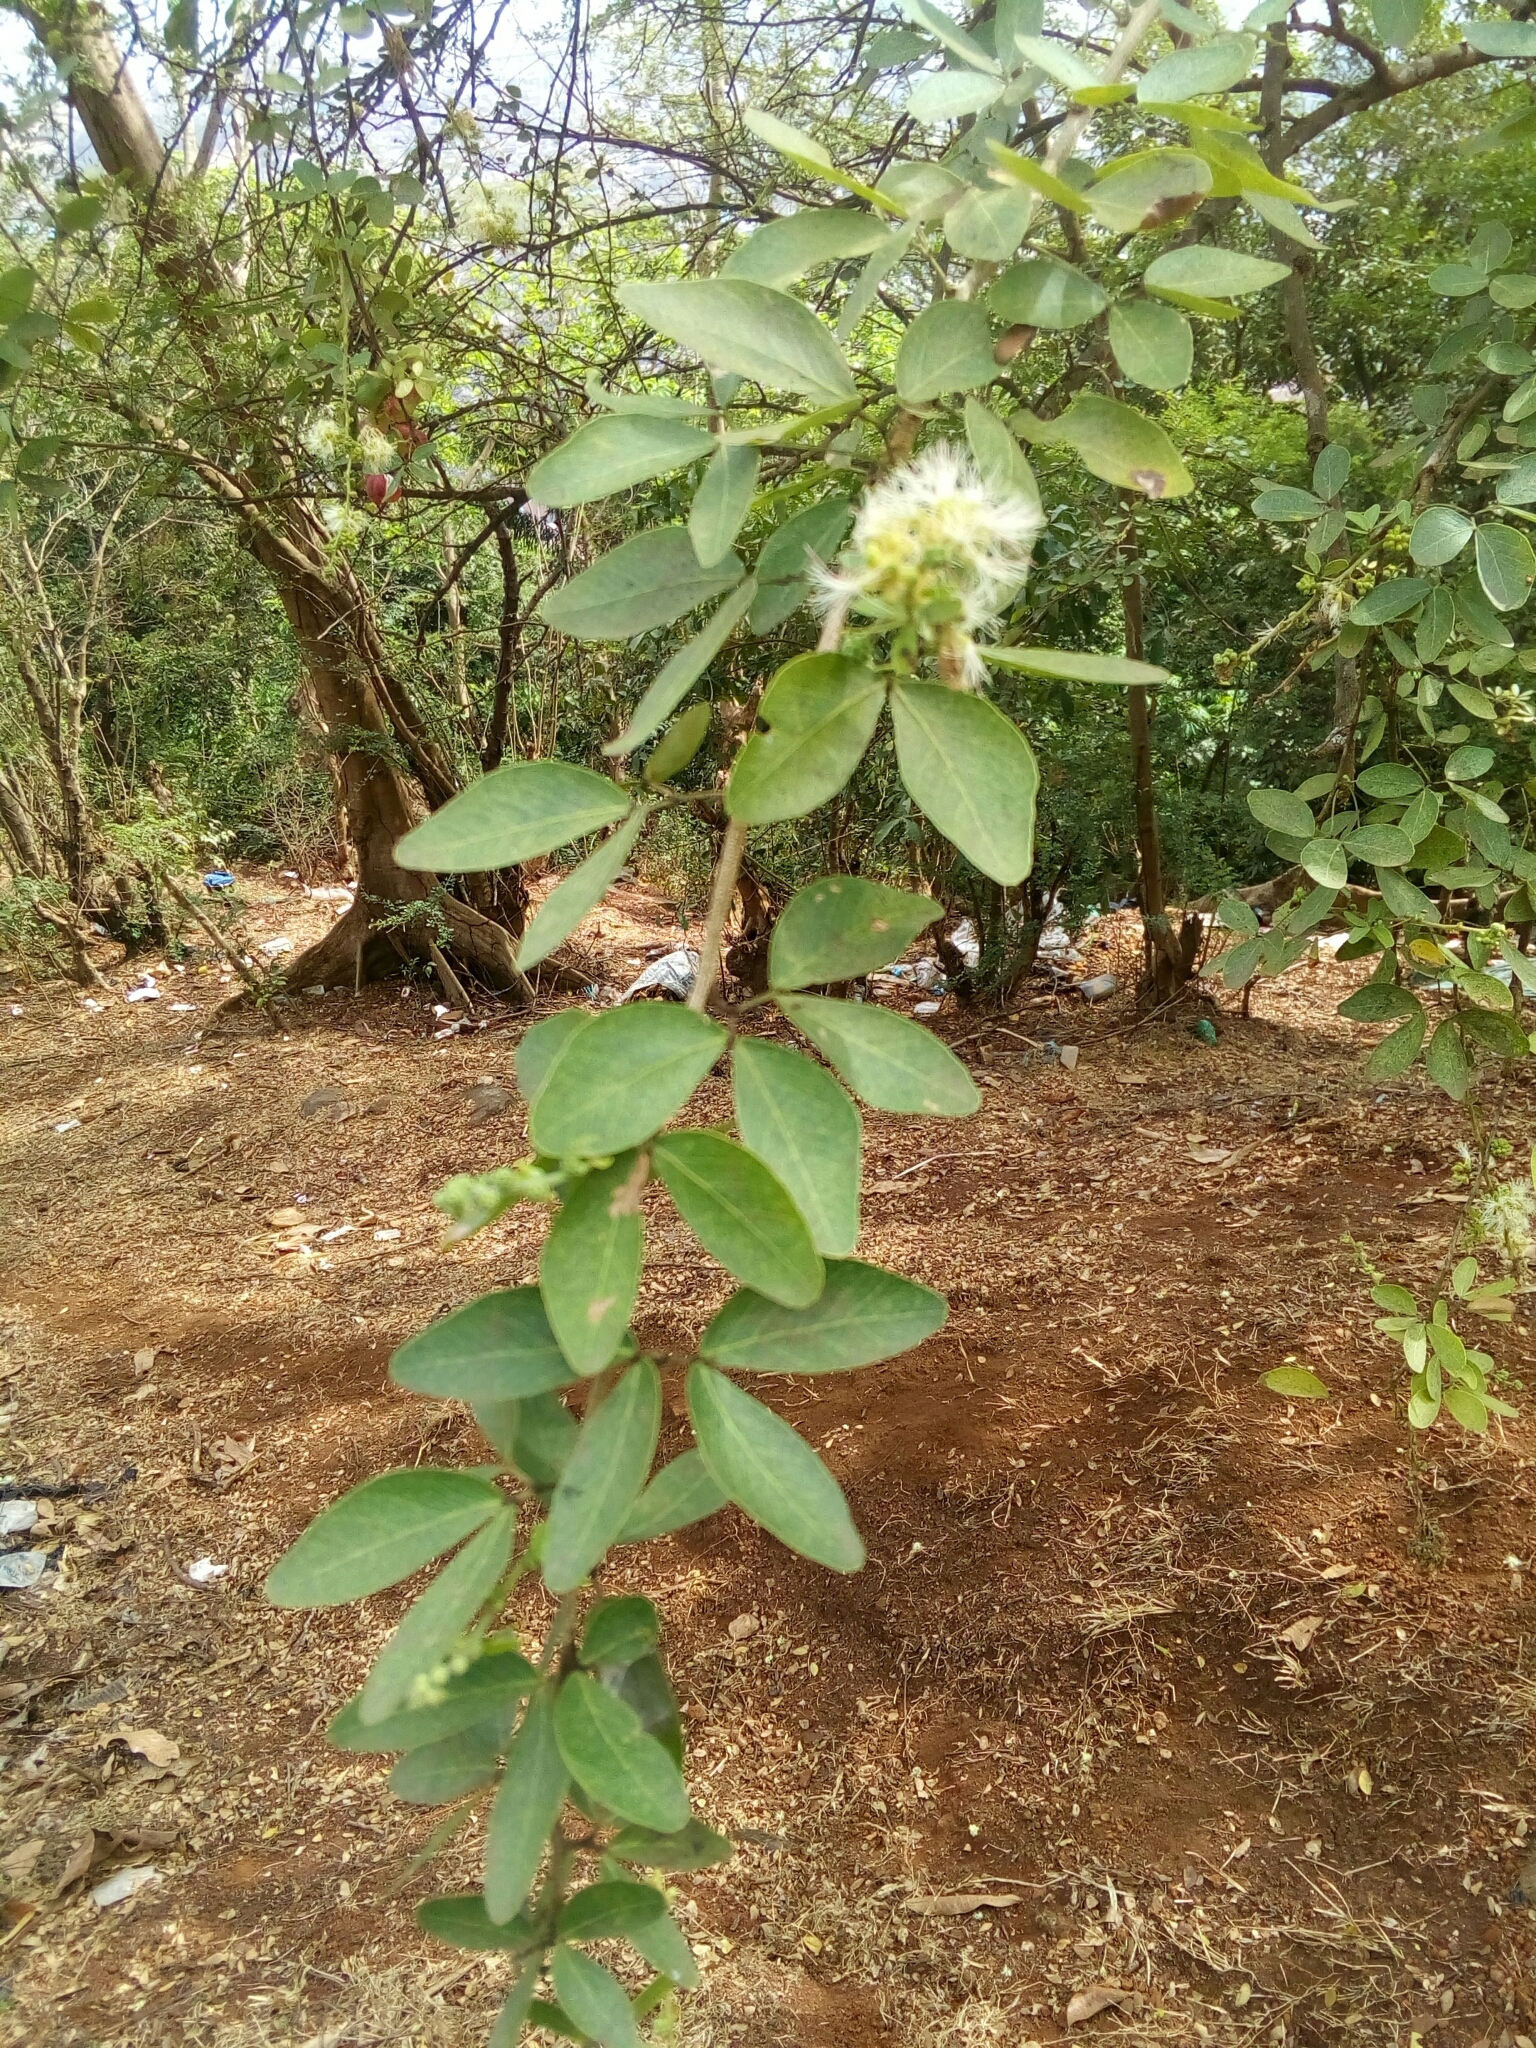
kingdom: Plantae
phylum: Tracheophyta
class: Magnoliopsida
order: Fabales
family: Fabaceae
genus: Pithecellobium
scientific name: Pithecellobium dulce
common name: Monkeypod
